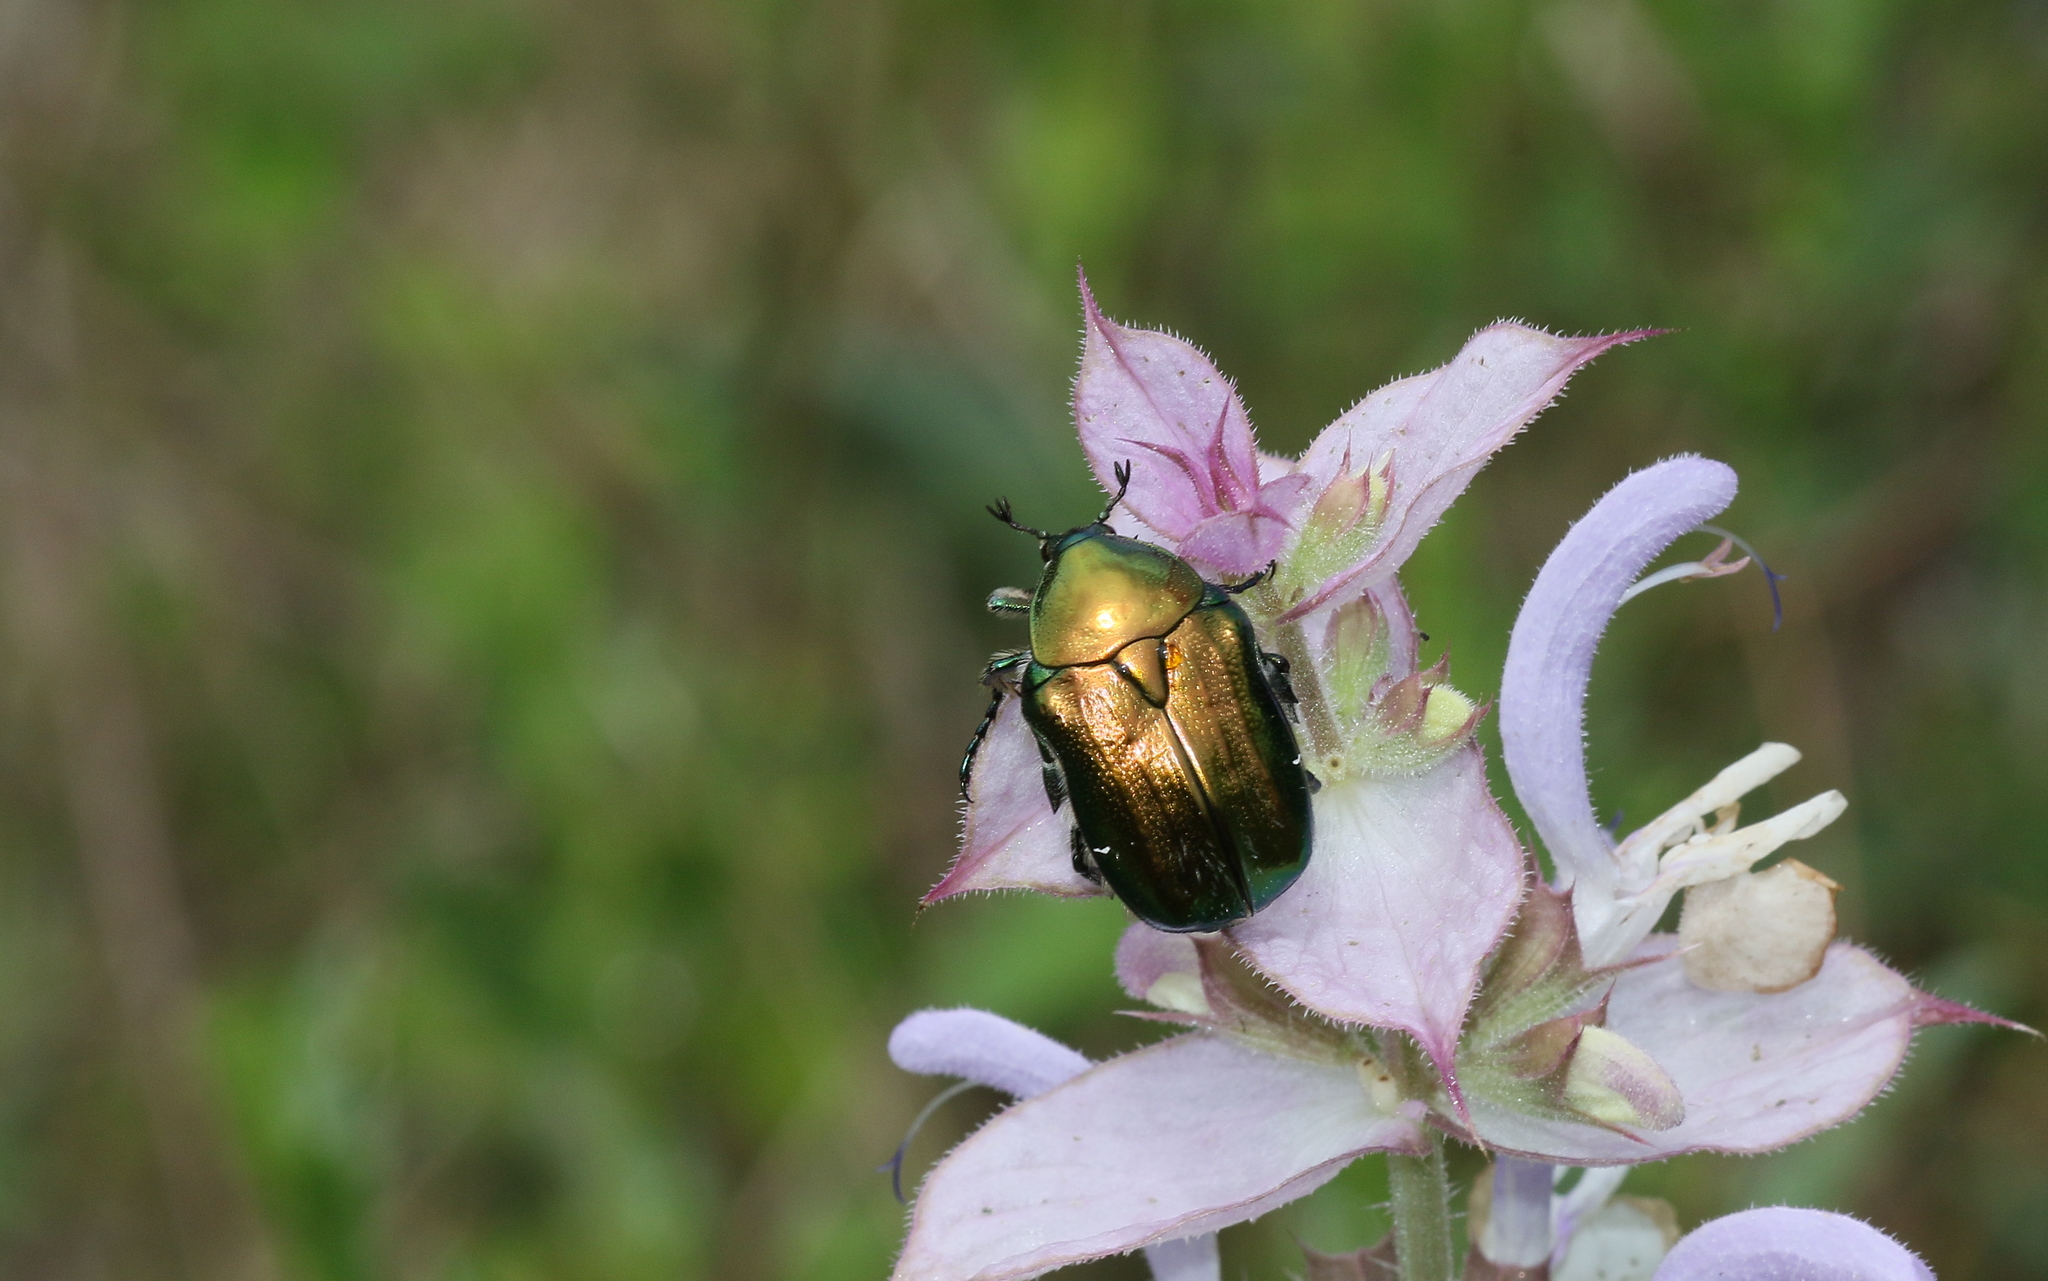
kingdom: Animalia
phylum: Arthropoda
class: Insecta
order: Coleoptera
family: Scarabaeidae
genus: Cetonia
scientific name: Cetonia aurata
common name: Rose chafer
